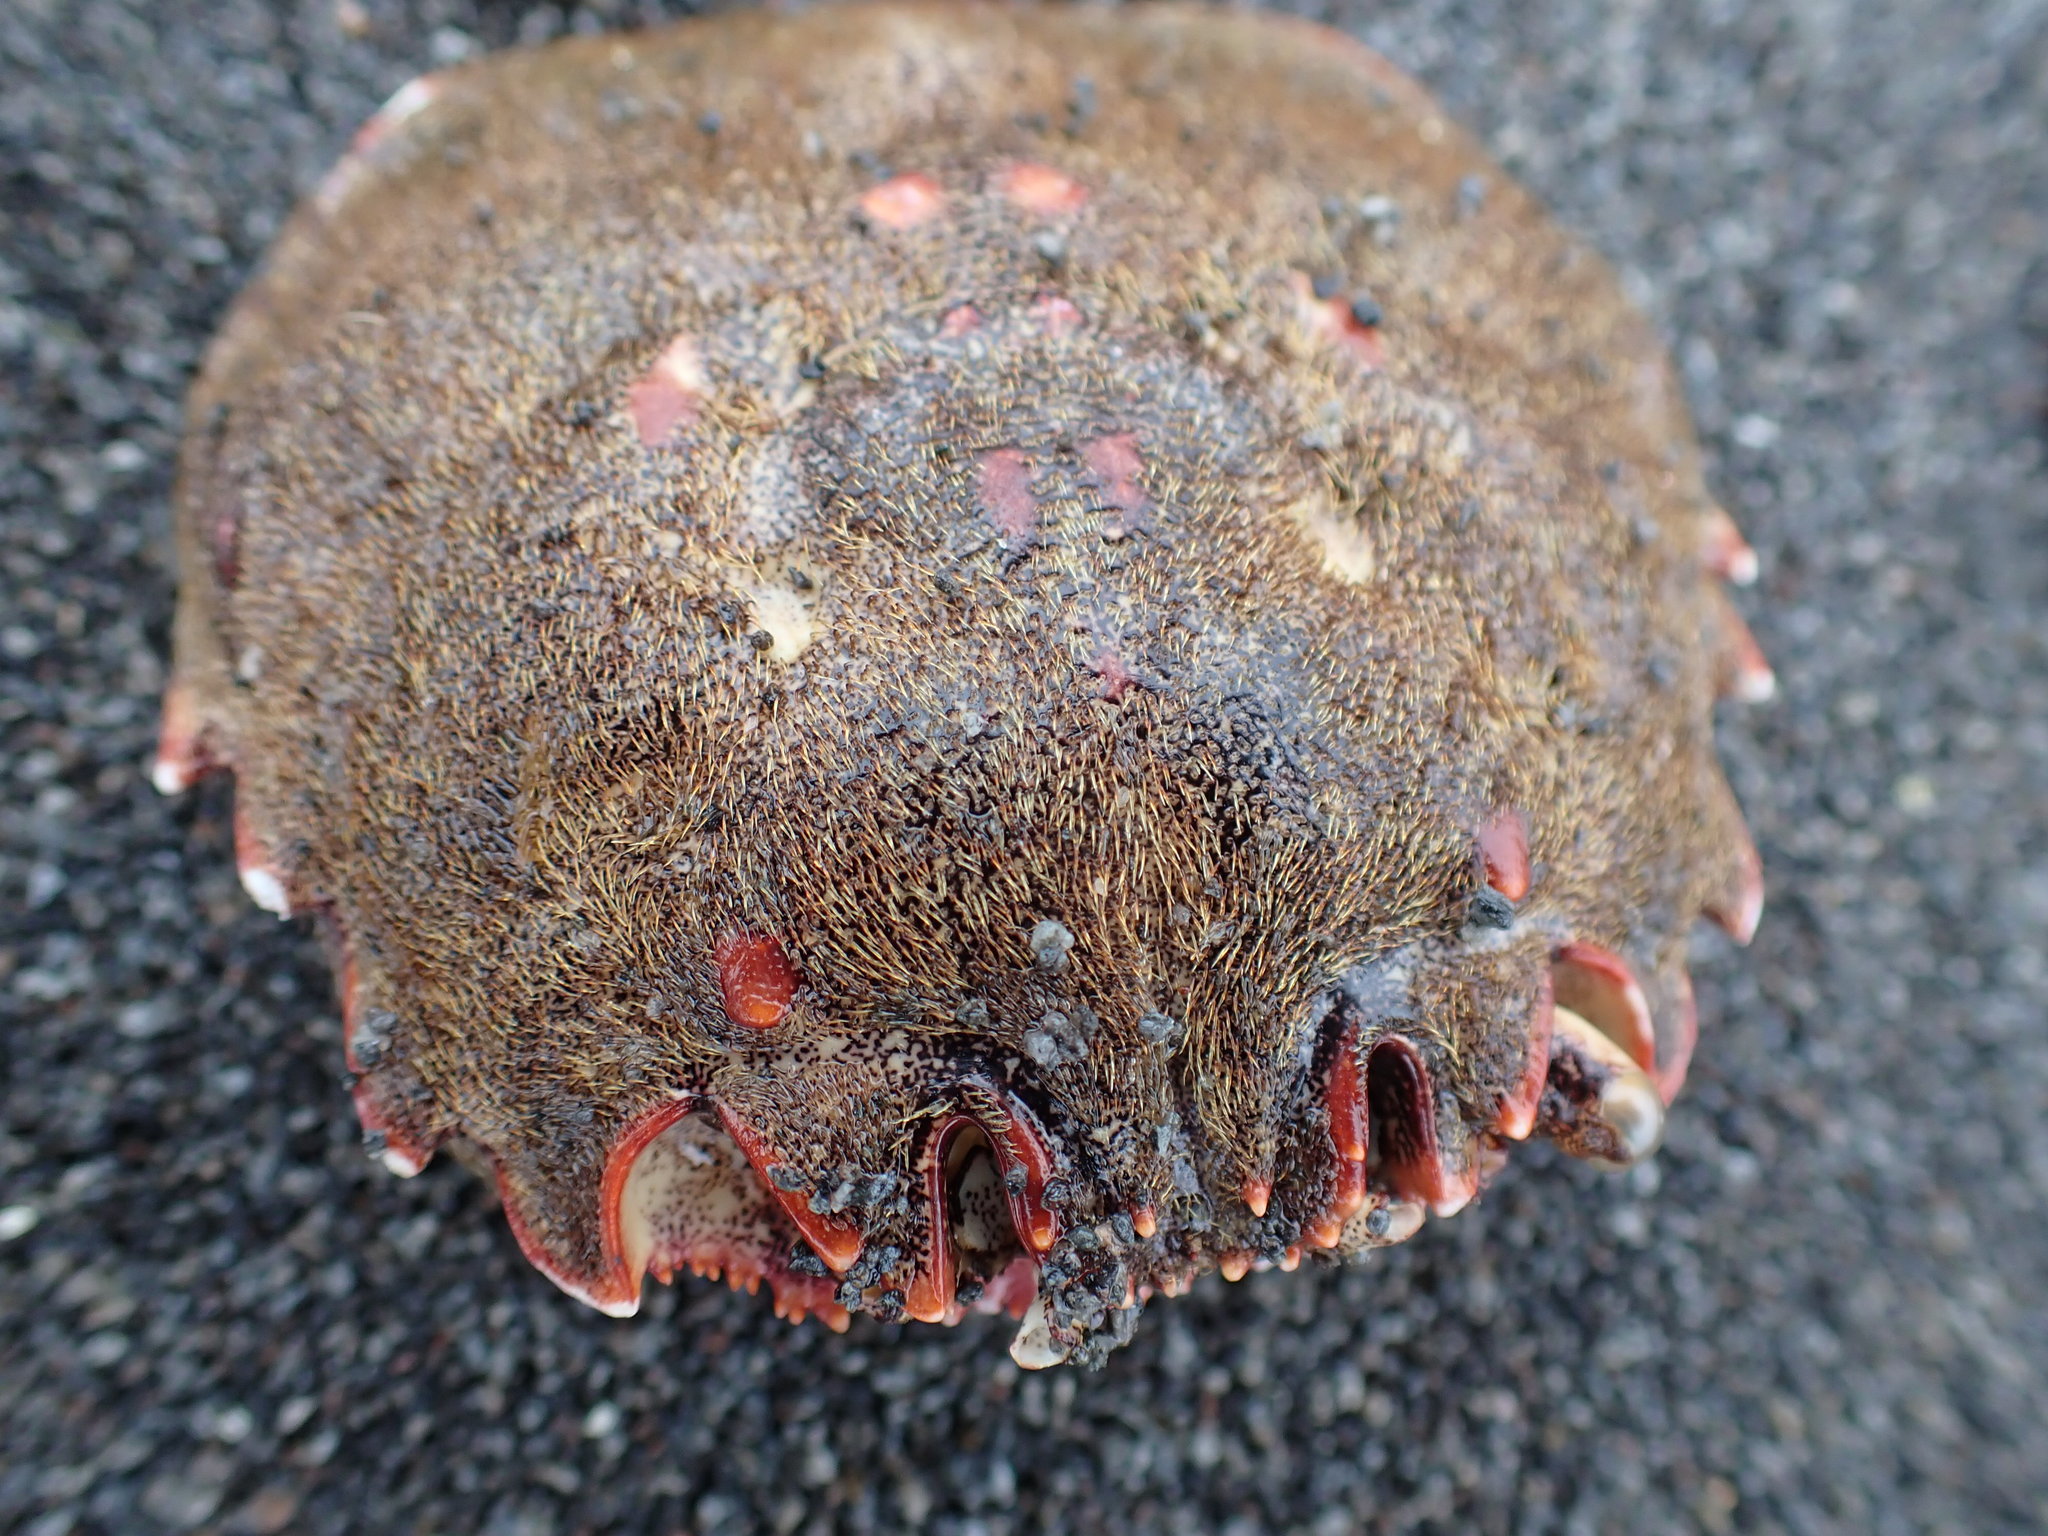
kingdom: Animalia
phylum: Arthropoda
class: Malacostraca
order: Decapoda
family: Plagusiidae
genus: Guinusia
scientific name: Guinusia chabrus
